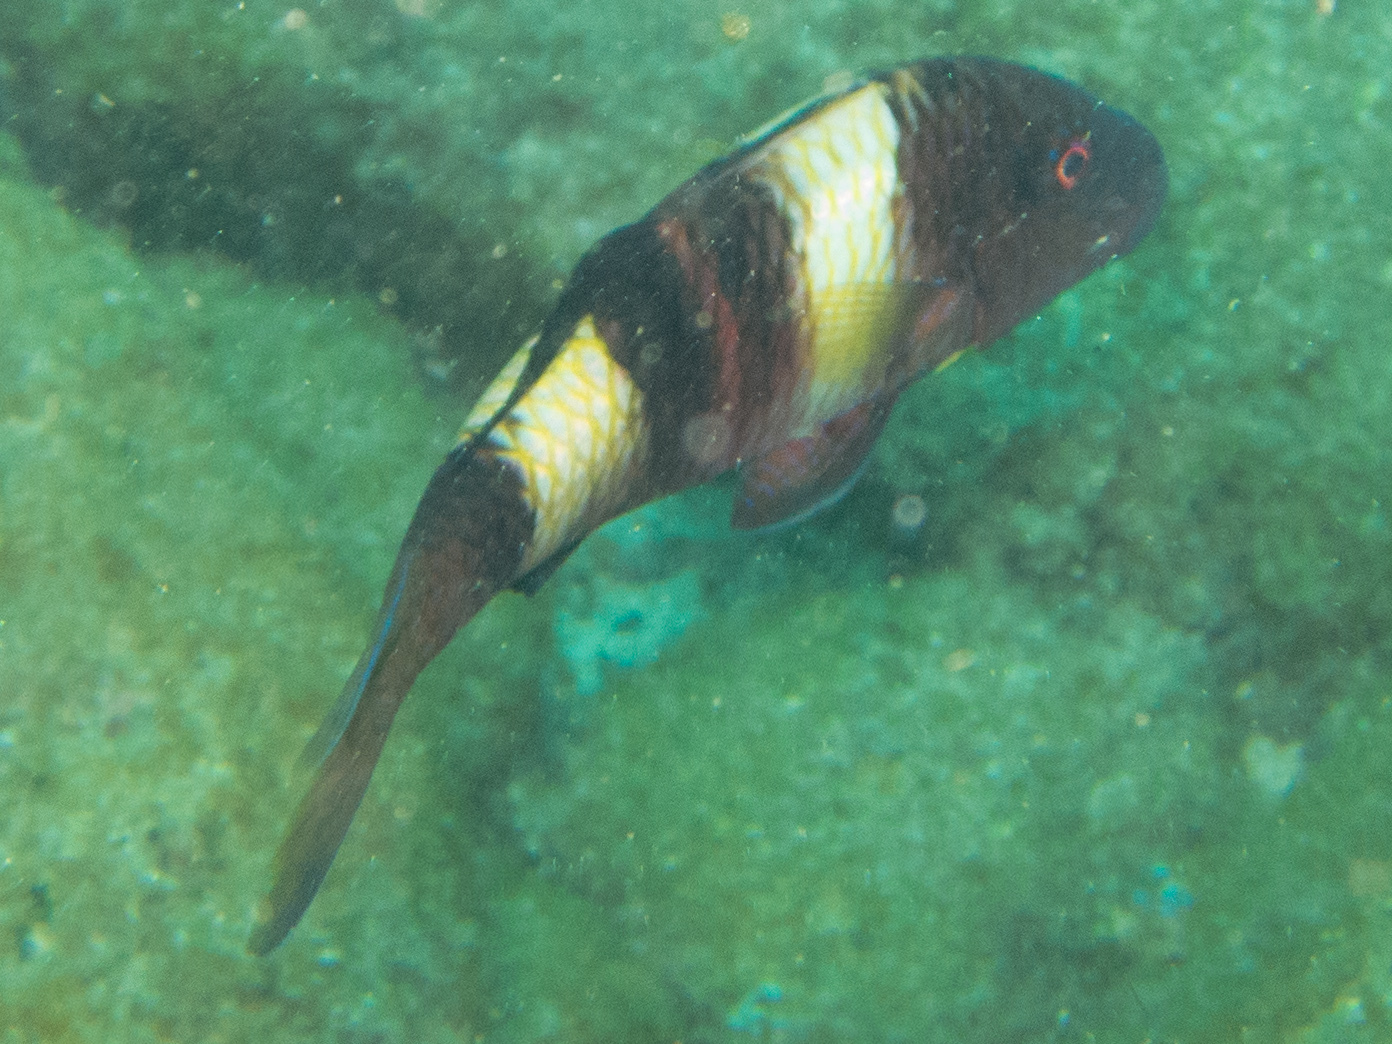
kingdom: Animalia
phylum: Chordata
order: Perciformes
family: Mullidae
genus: Parupeneus
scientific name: Parupeneus multifasciatus
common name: Manybar goatfish
